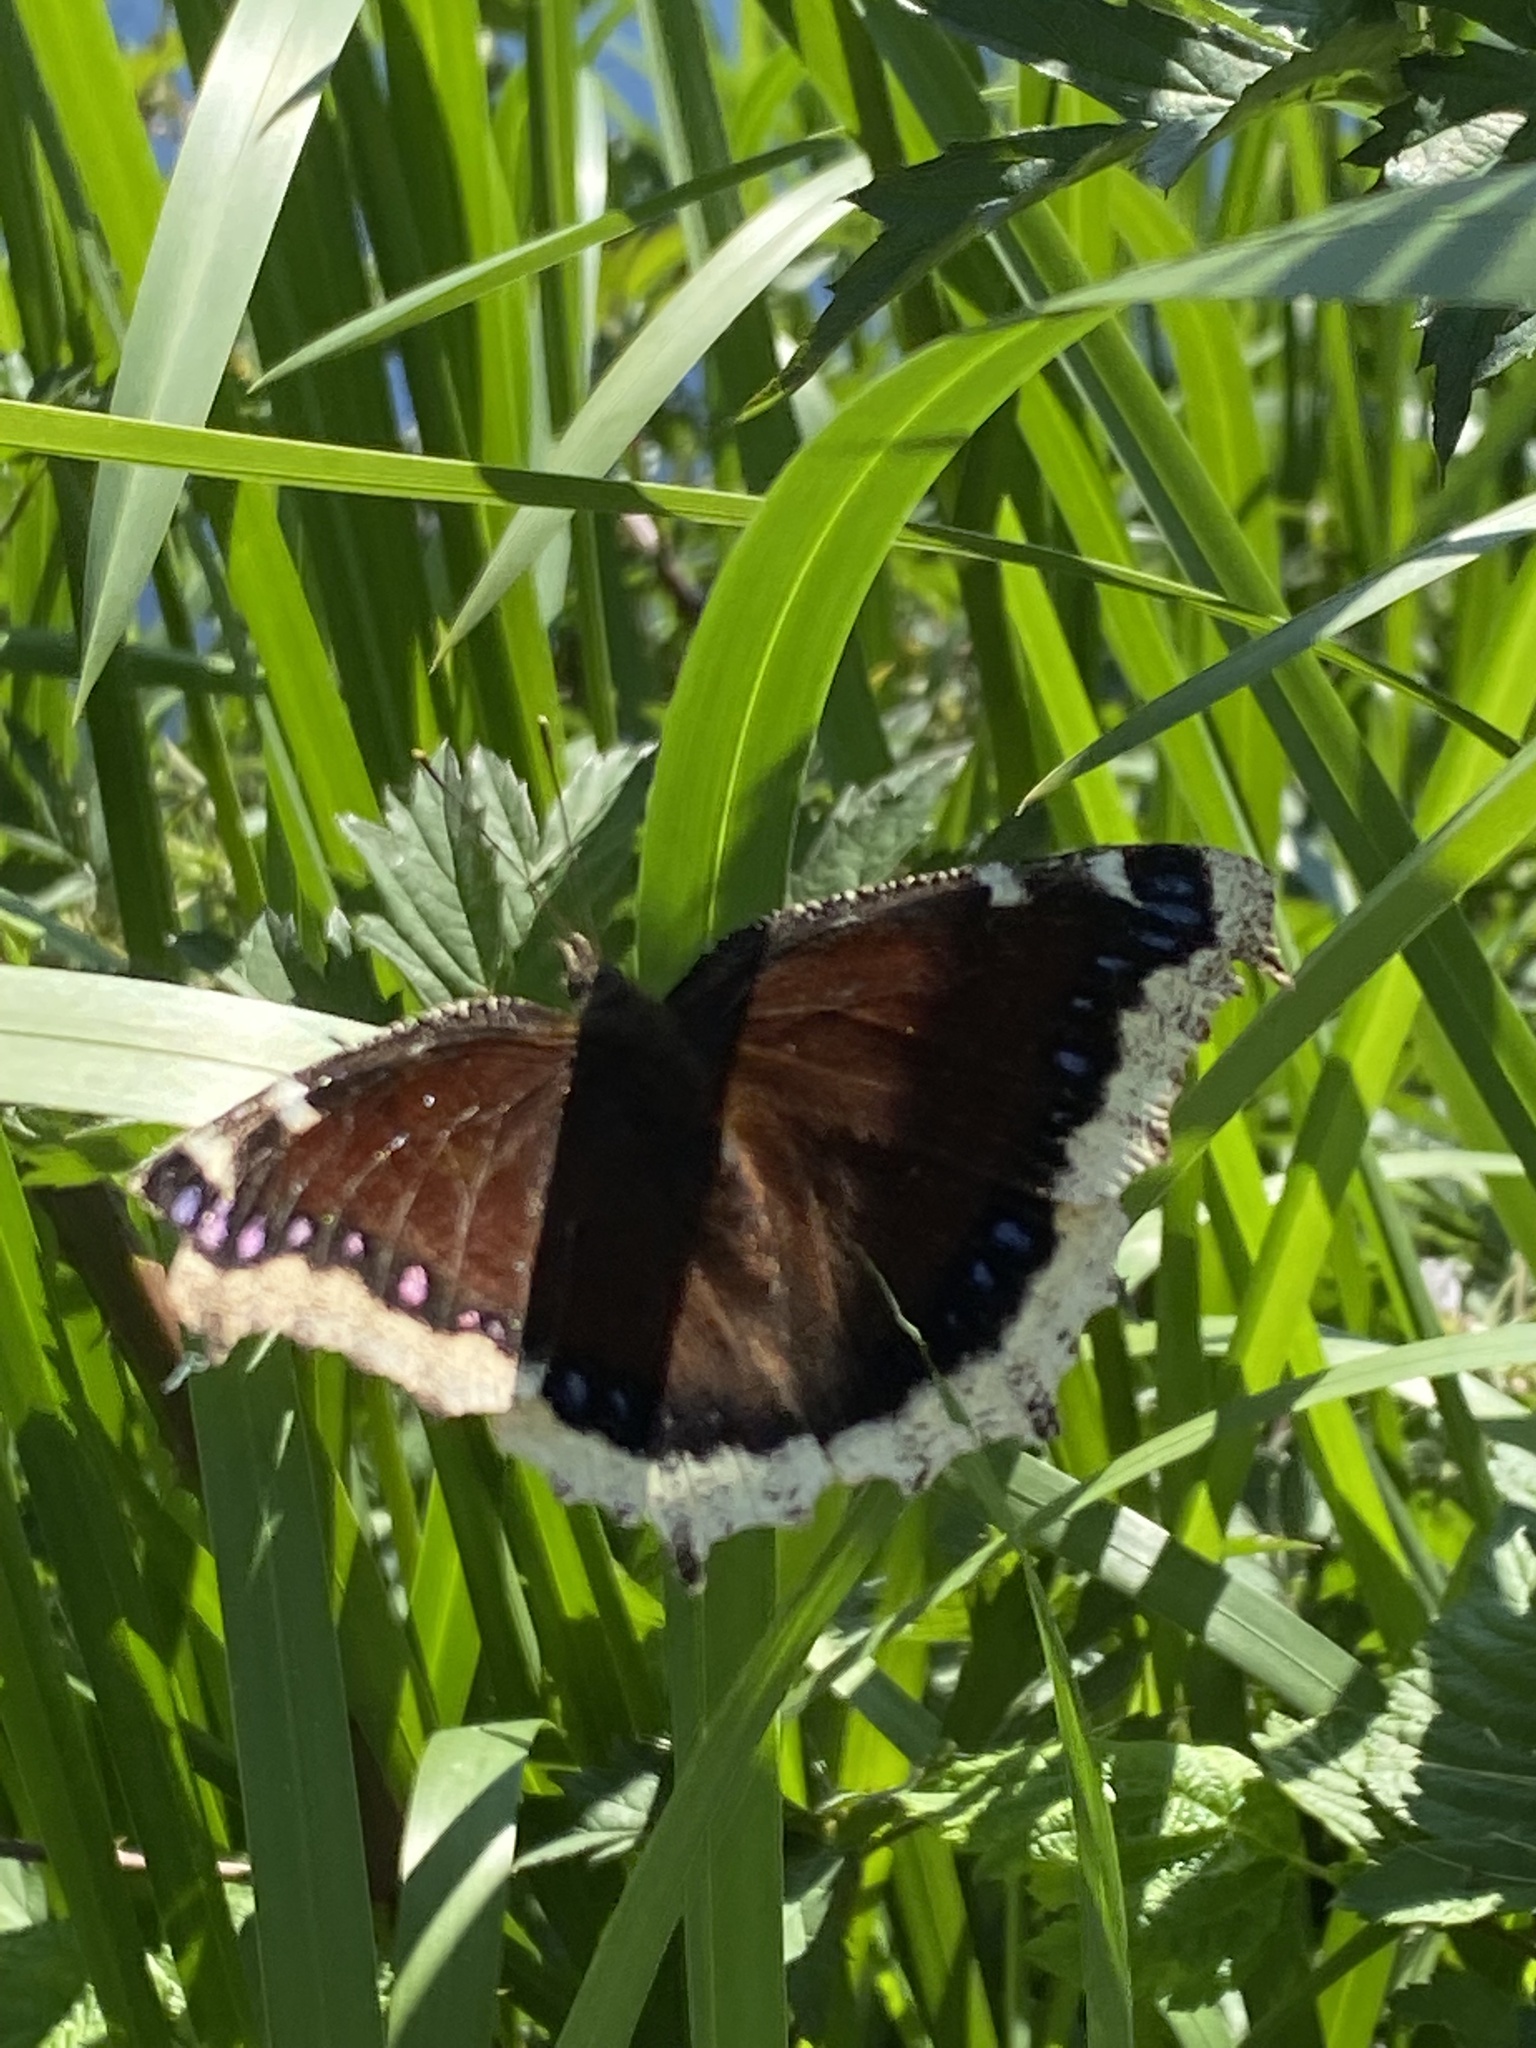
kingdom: Animalia
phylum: Arthropoda
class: Insecta
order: Lepidoptera
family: Nymphalidae
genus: Nymphalis
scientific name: Nymphalis antiopa
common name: Camberwell beauty
